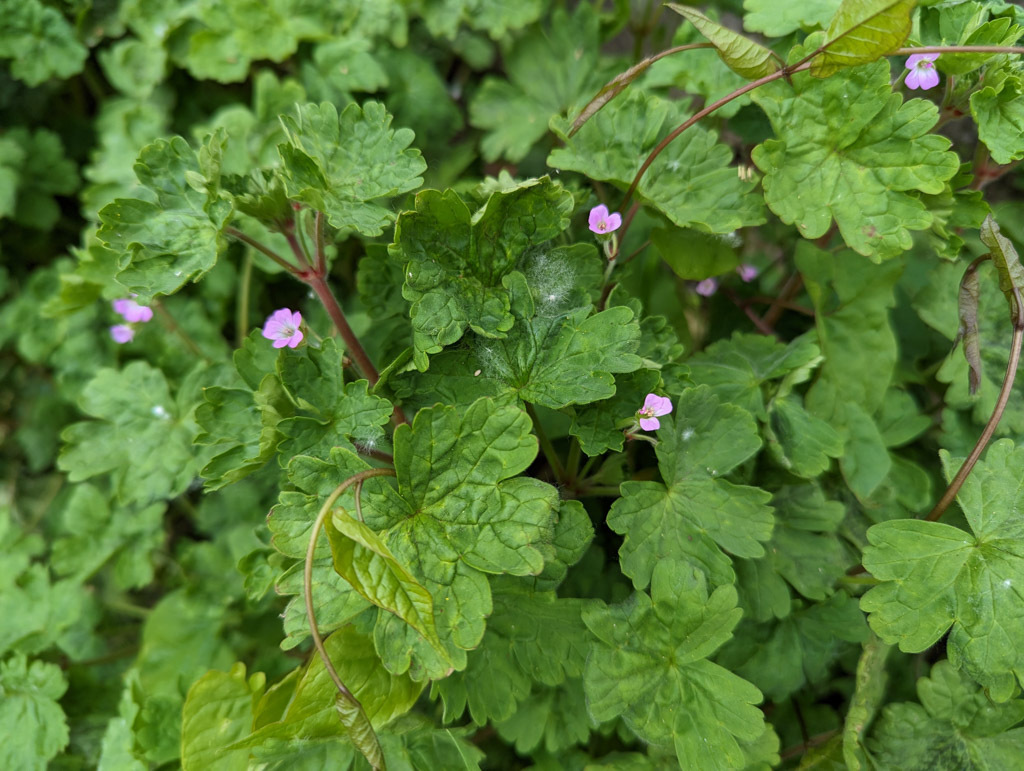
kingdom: Plantae
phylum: Tracheophyta
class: Magnoliopsida
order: Geraniales
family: Geraniaceae
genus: Geranium
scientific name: Geranium rotundifolium
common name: Round-leaved crane's-bill
